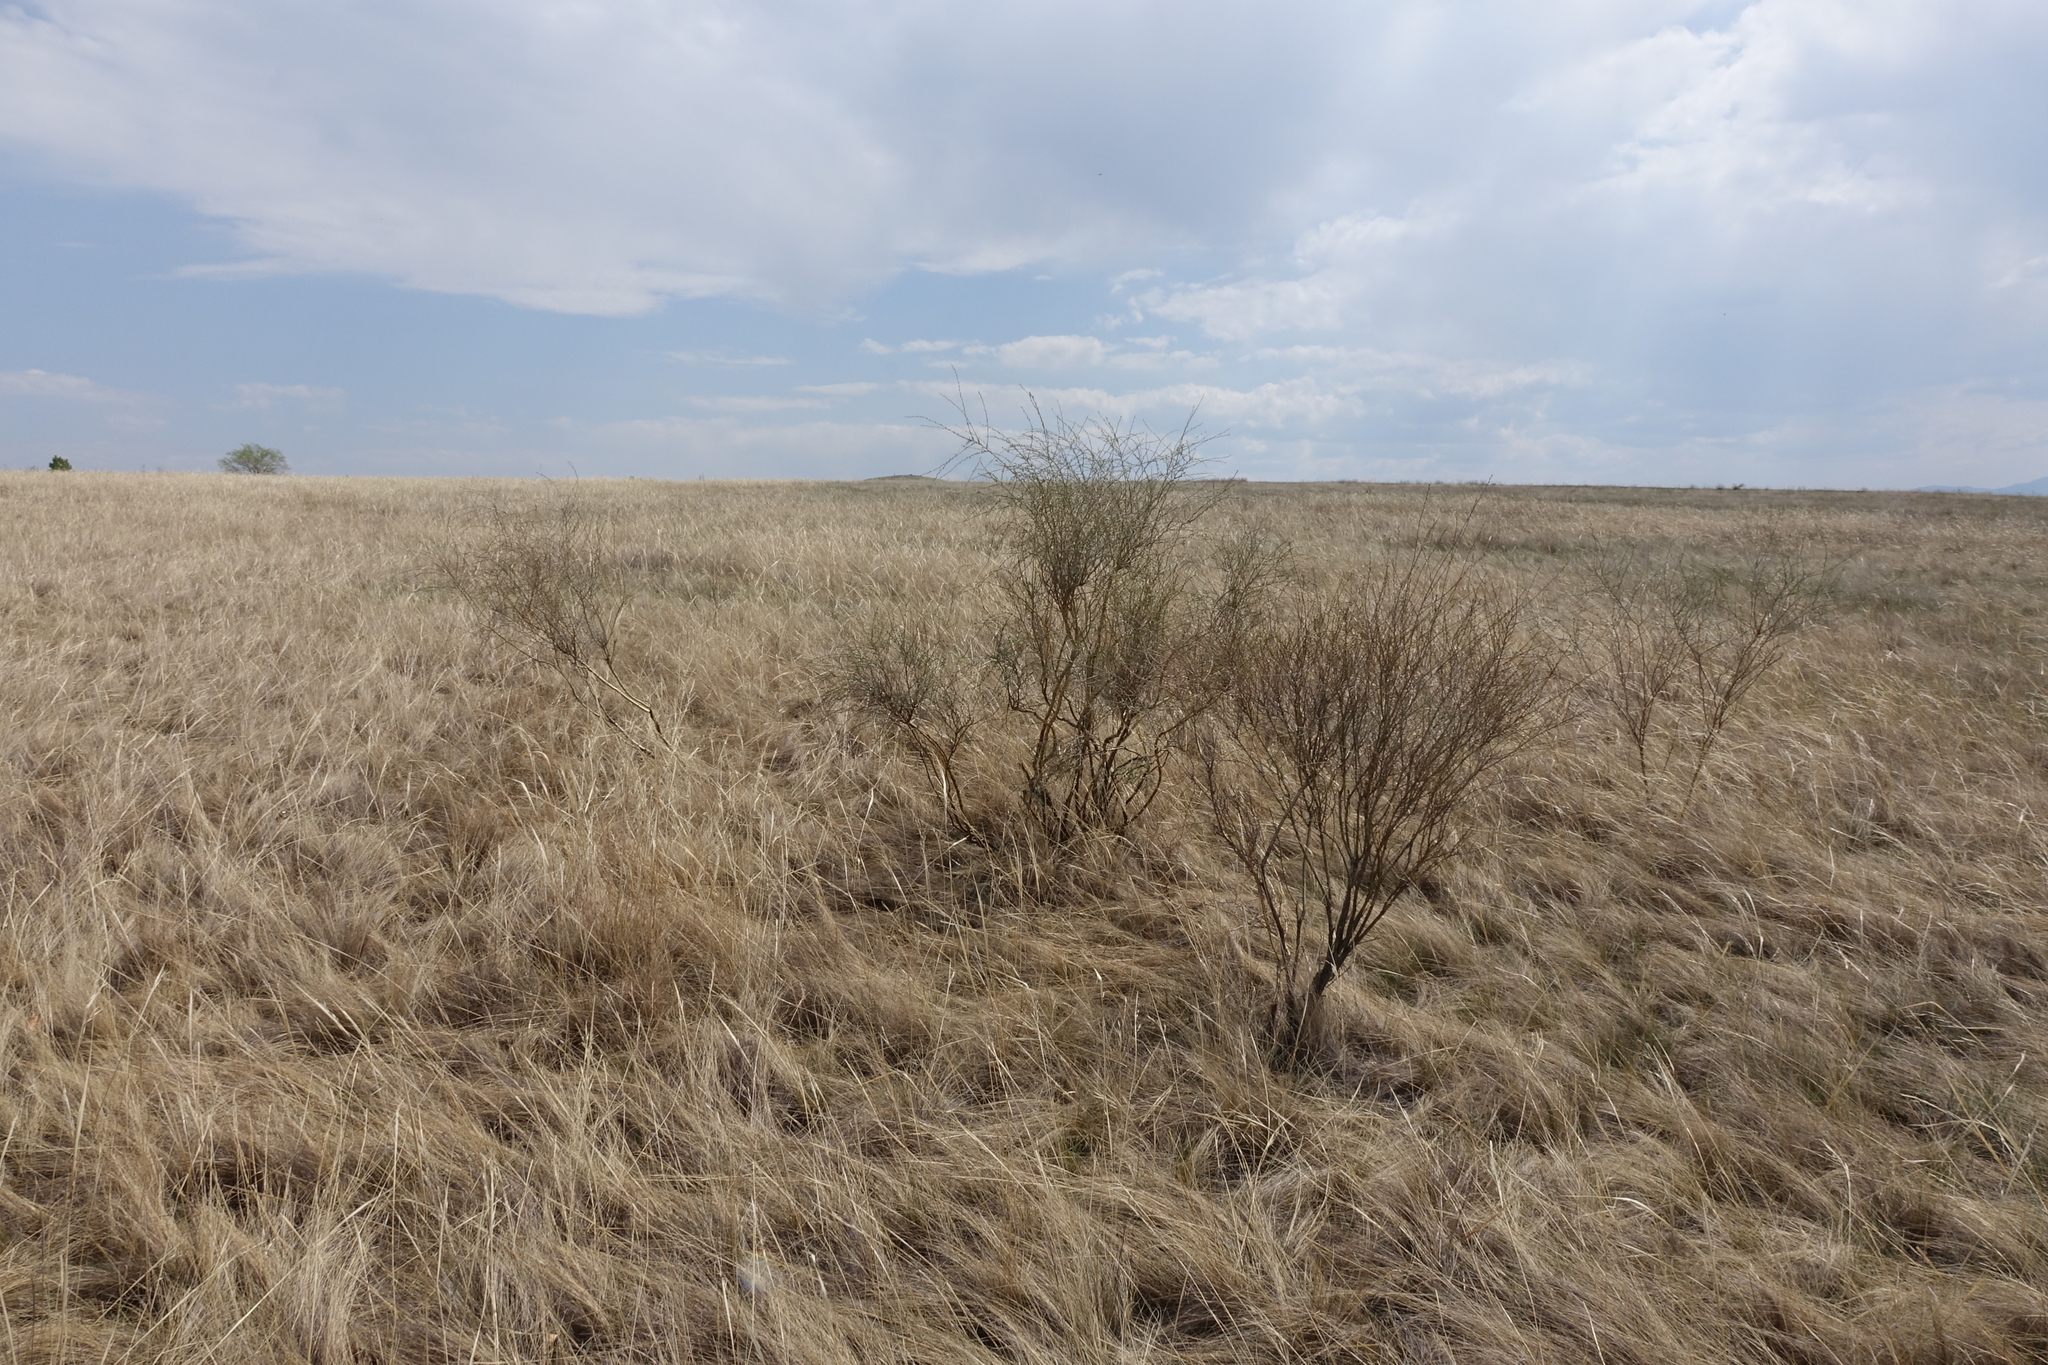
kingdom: Plantae
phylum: Tracheophyta
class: Magnoliopsida
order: Fabales
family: Fabaceae
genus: Caragana
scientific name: Caragana pygmaea
